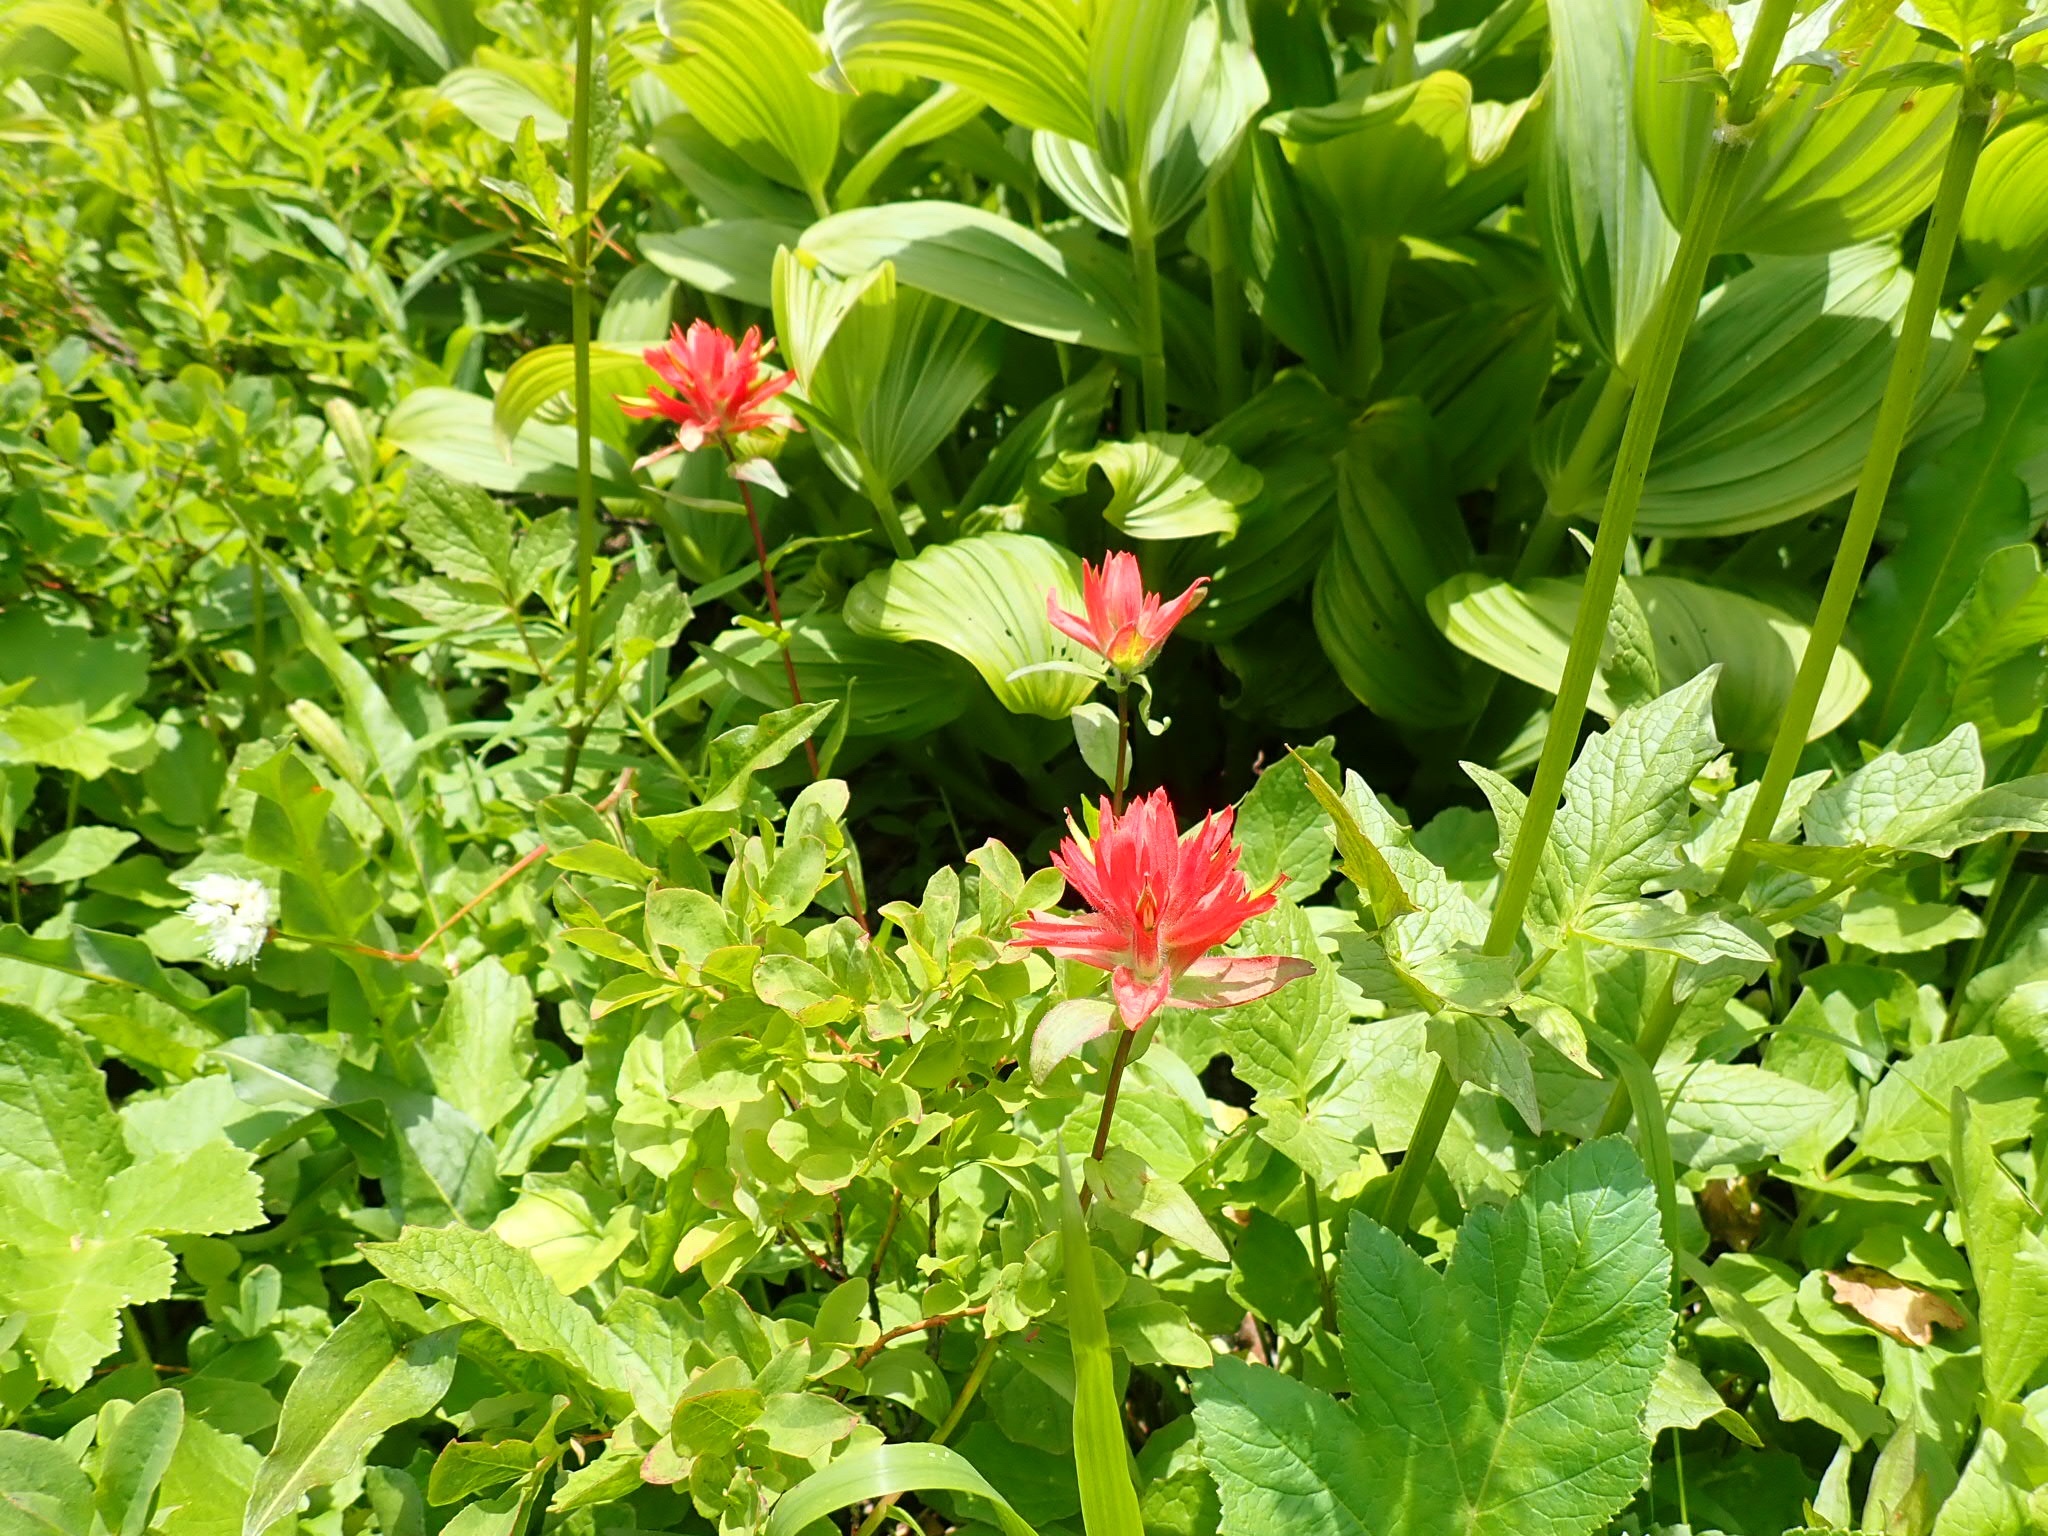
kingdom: Plantae
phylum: Tracheophyta
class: Magnoliopsida
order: Lamiales
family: Orobanchaceae
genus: Castilleja
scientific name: Castilleja miniata
